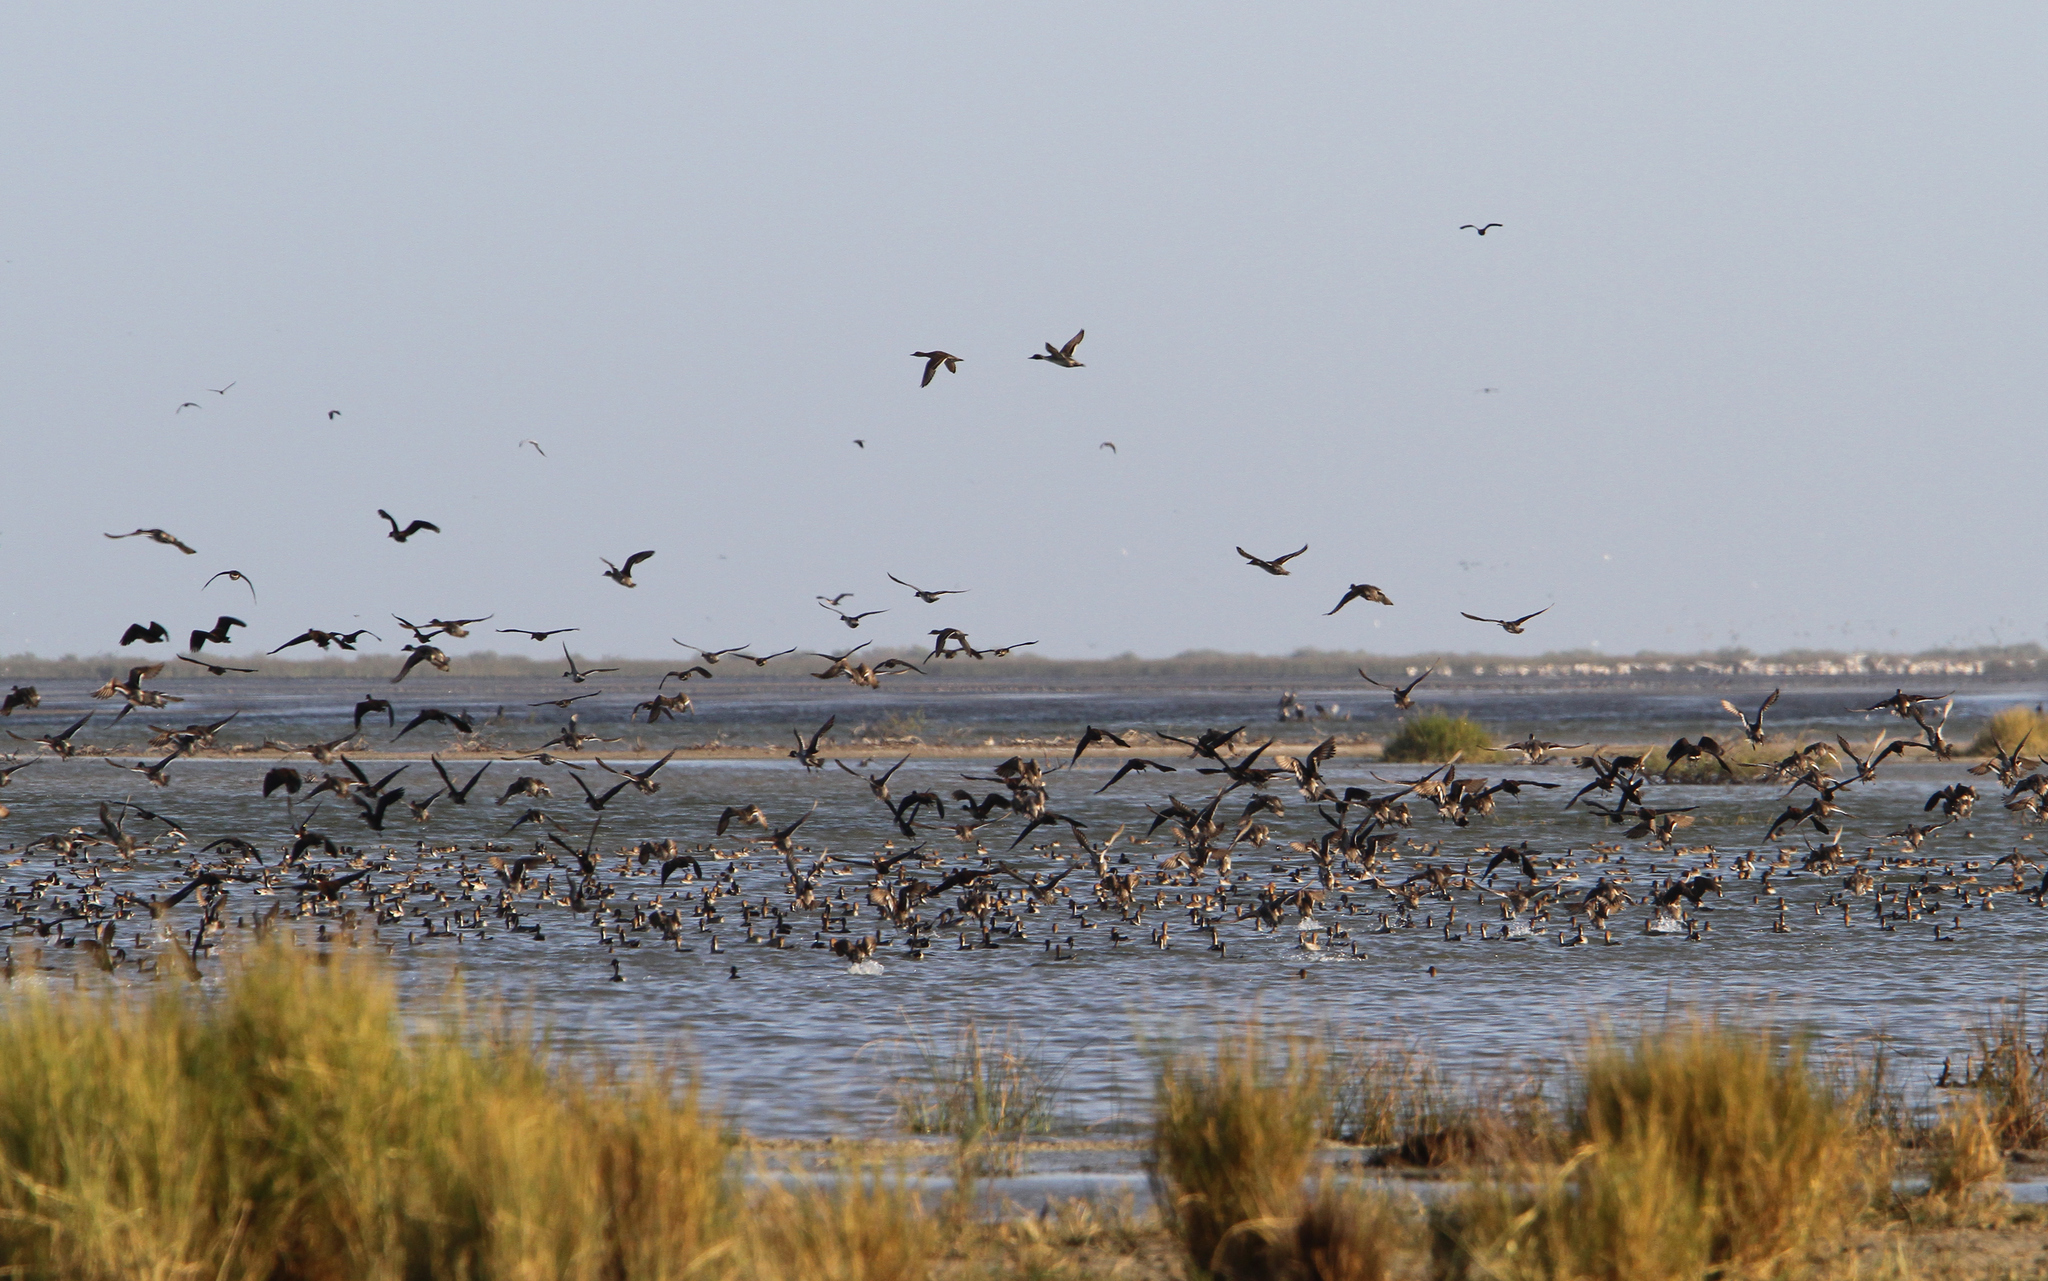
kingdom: Animalia
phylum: Chordata
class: Aves
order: Anseriformes
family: Anatidae
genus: Anas
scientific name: Anas acuta
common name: Northern pintail
